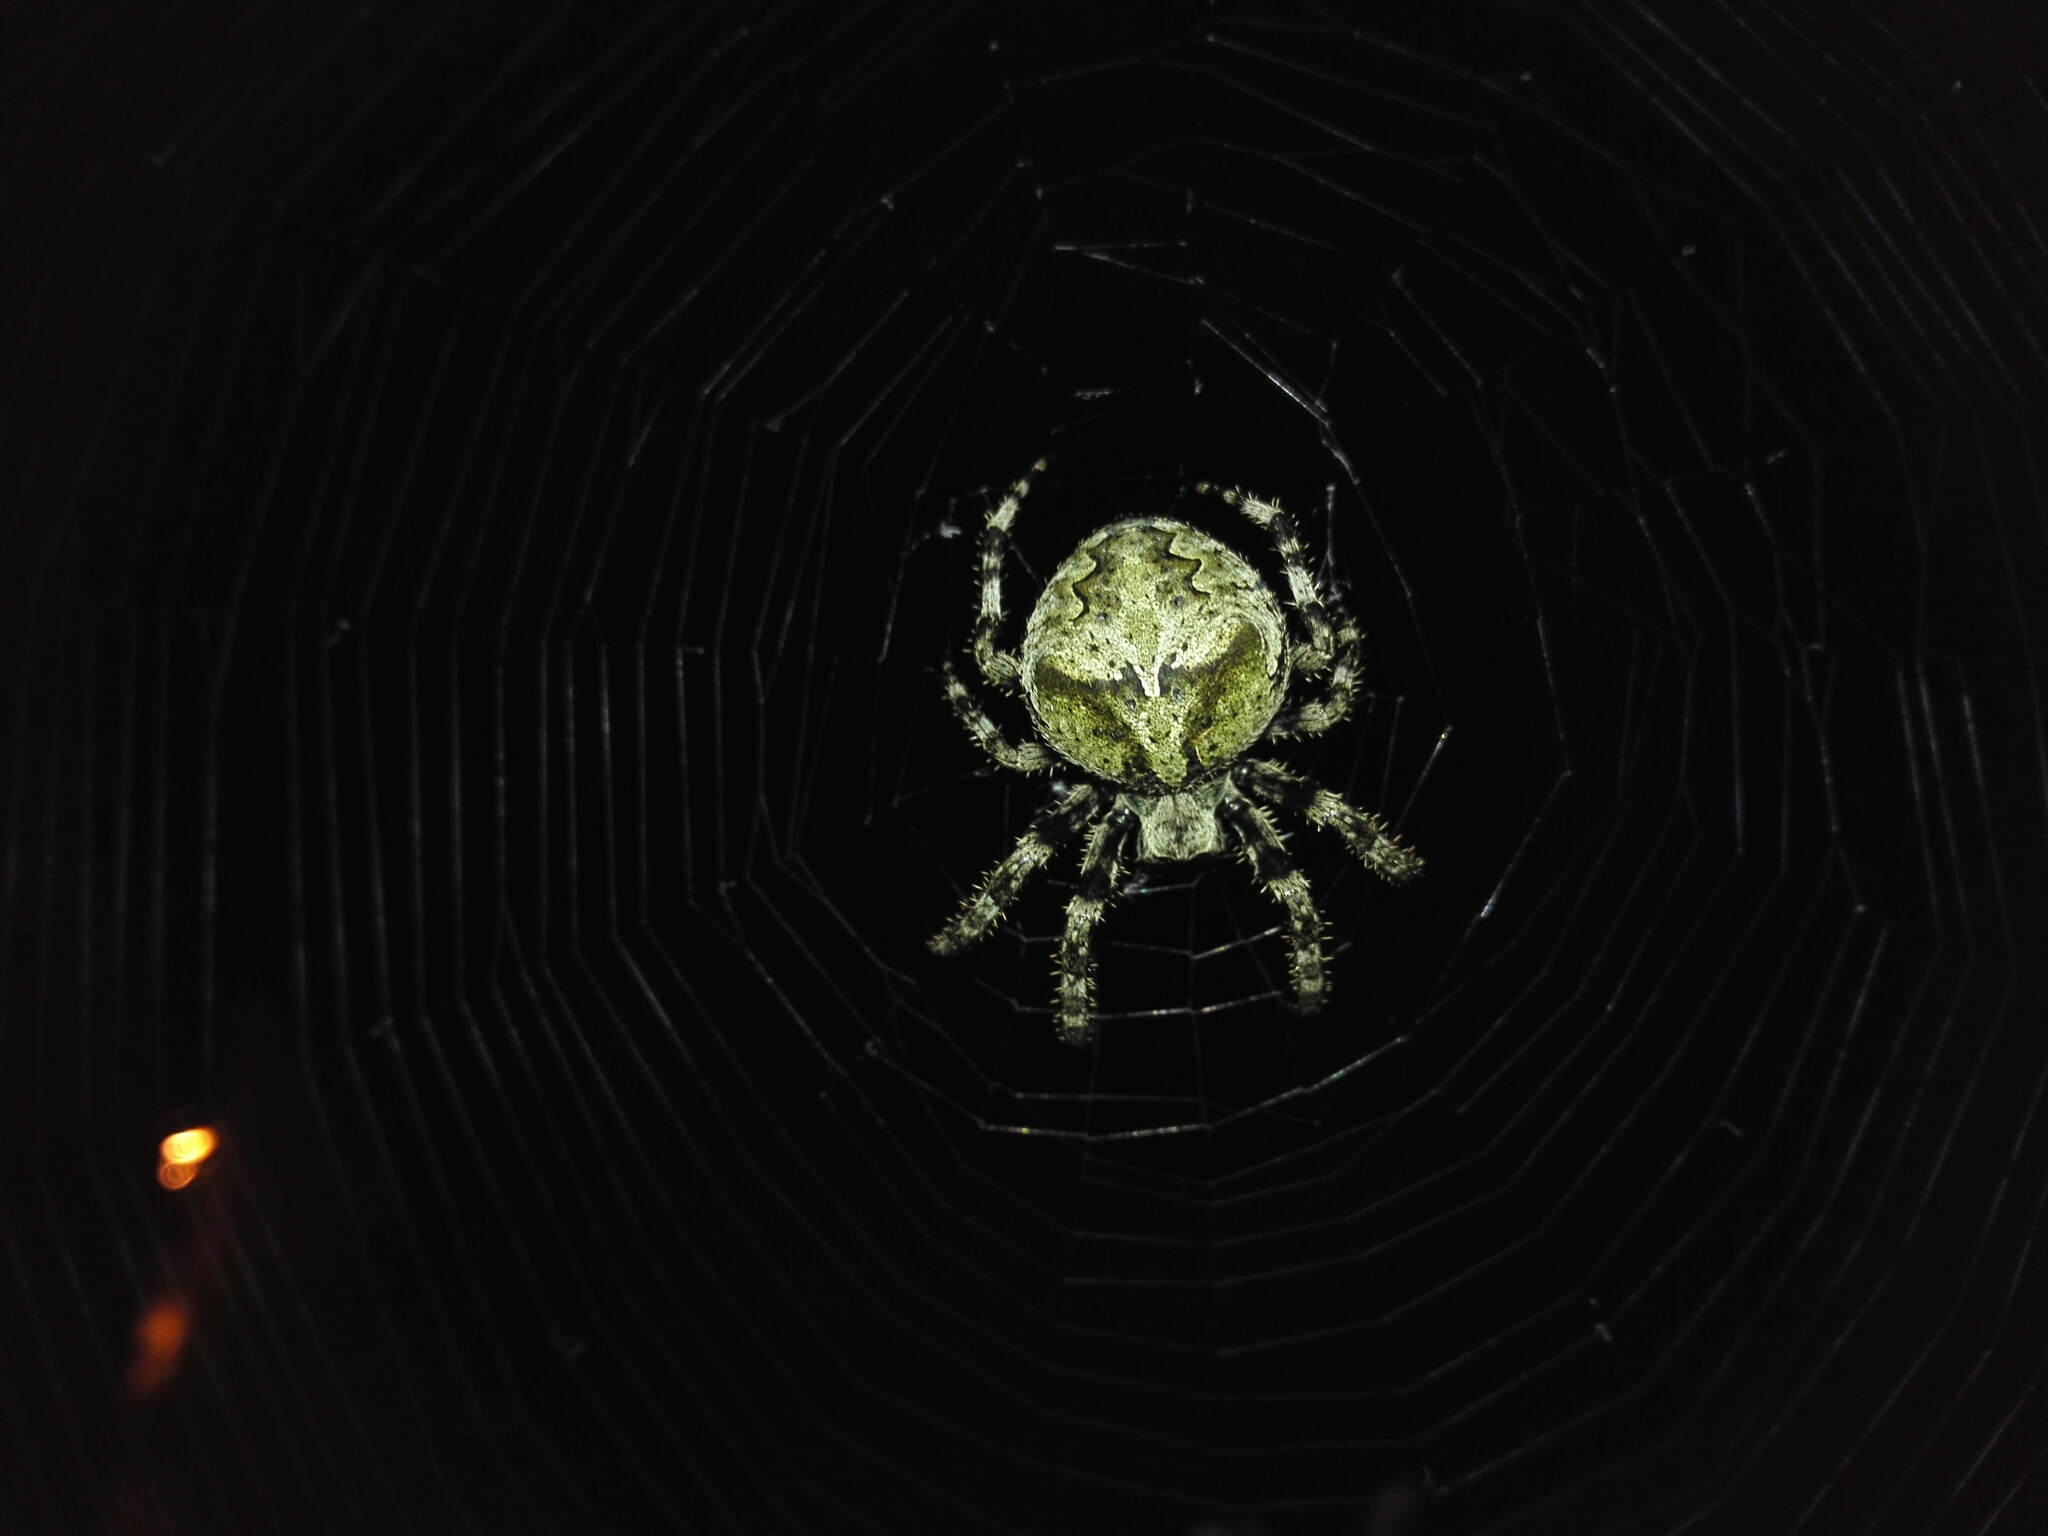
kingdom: Animalia
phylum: Arthropoda
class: Arachnida
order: Araneae
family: Araneidae
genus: Araneus
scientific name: Araneus angulatus
